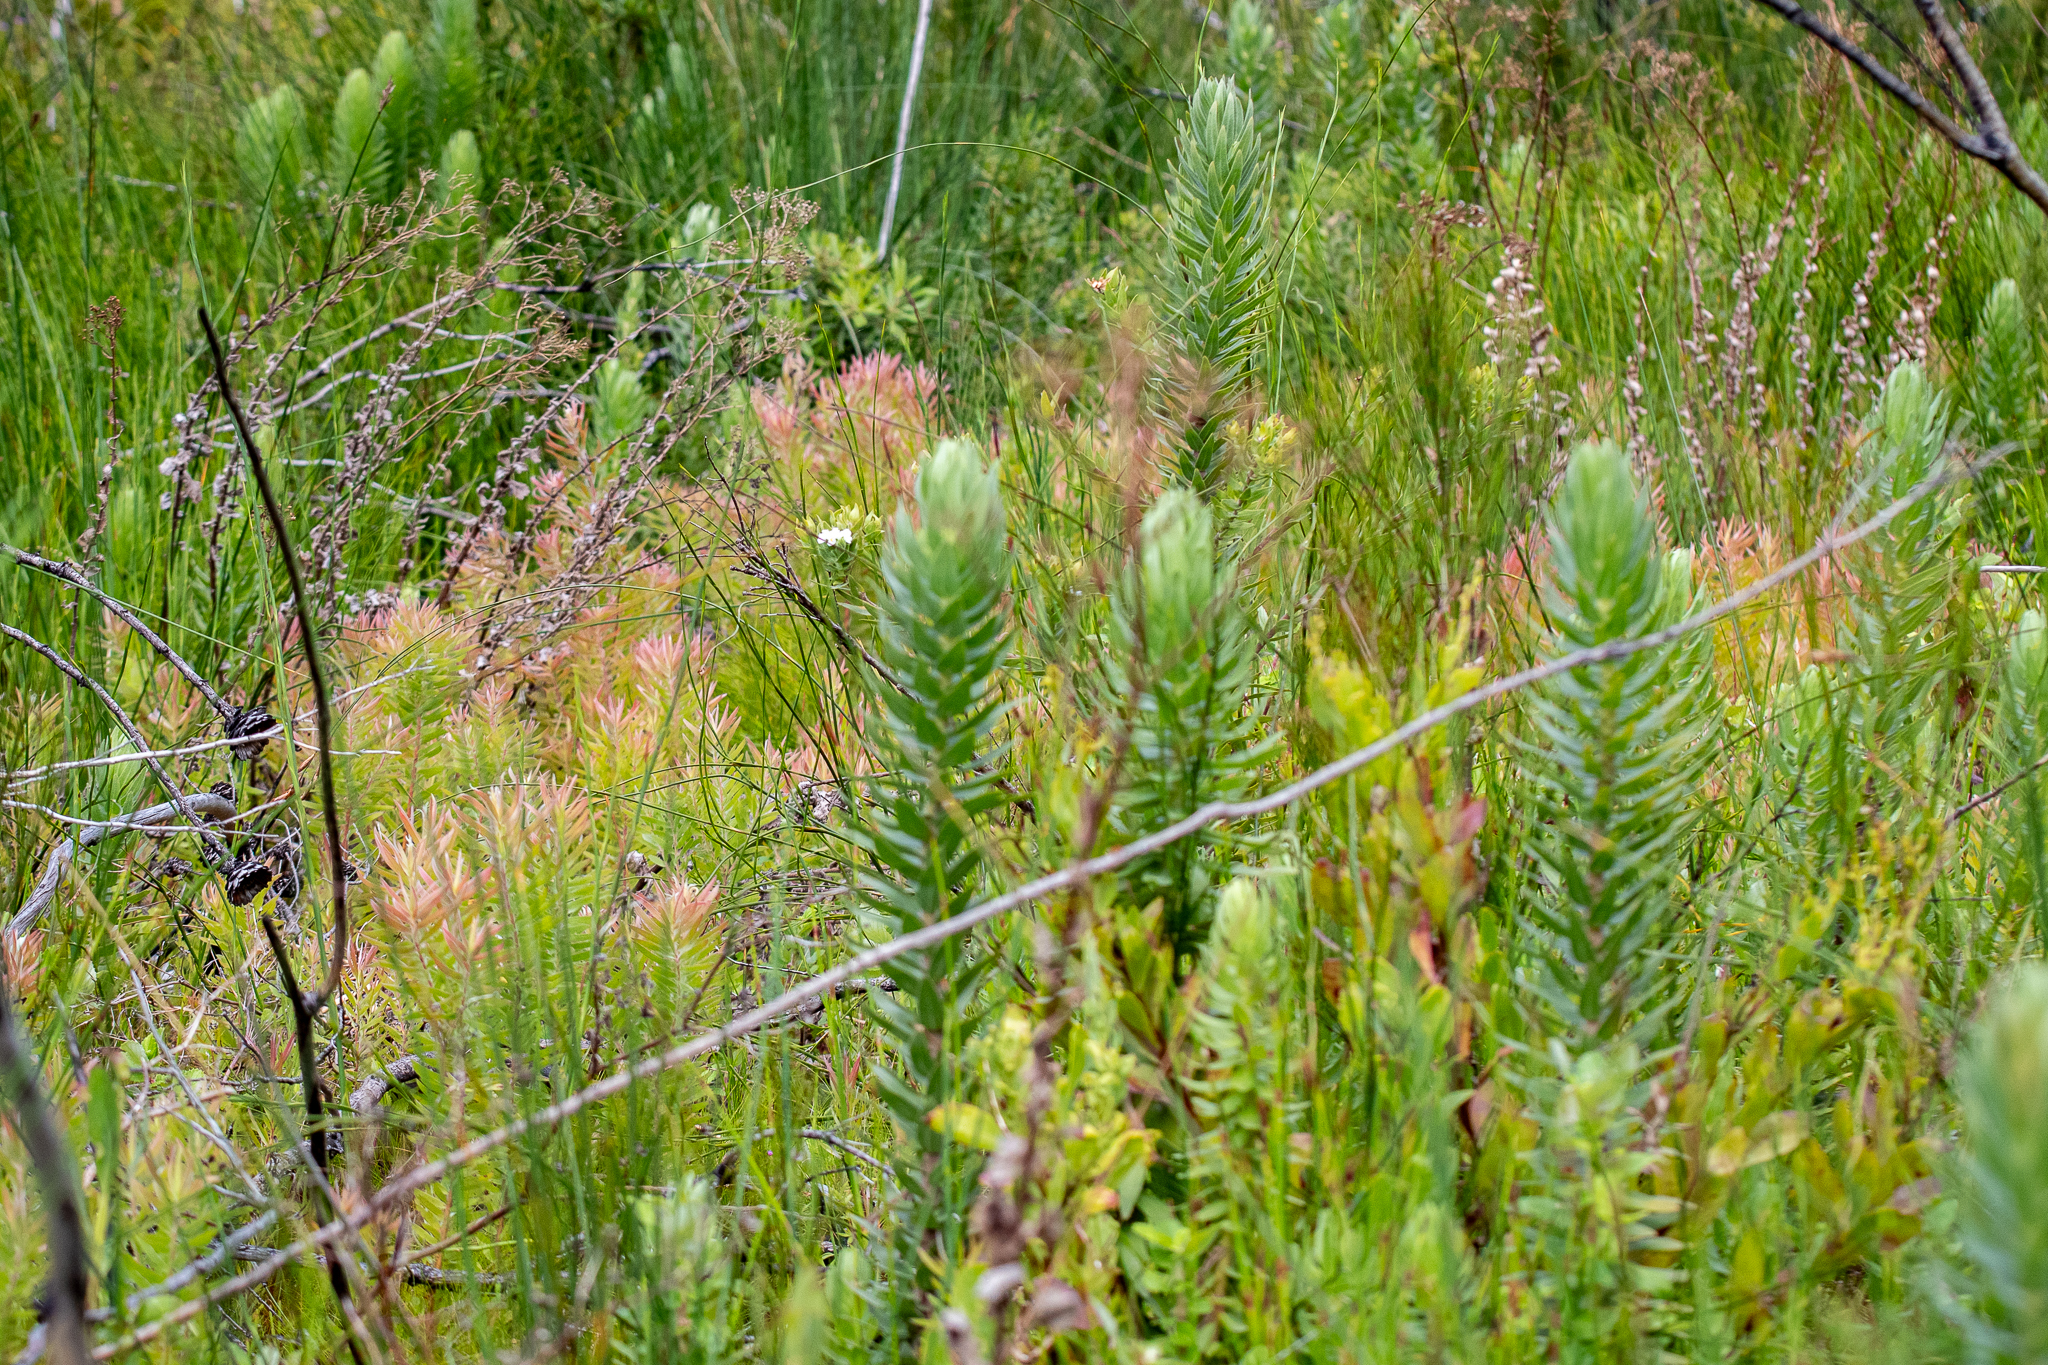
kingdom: Plantae
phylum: Tracheophyta
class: Magnoliopsida
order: Asterales
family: Asteraceae
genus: Osmitopsis
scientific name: Osmitopsis asteriscoides
